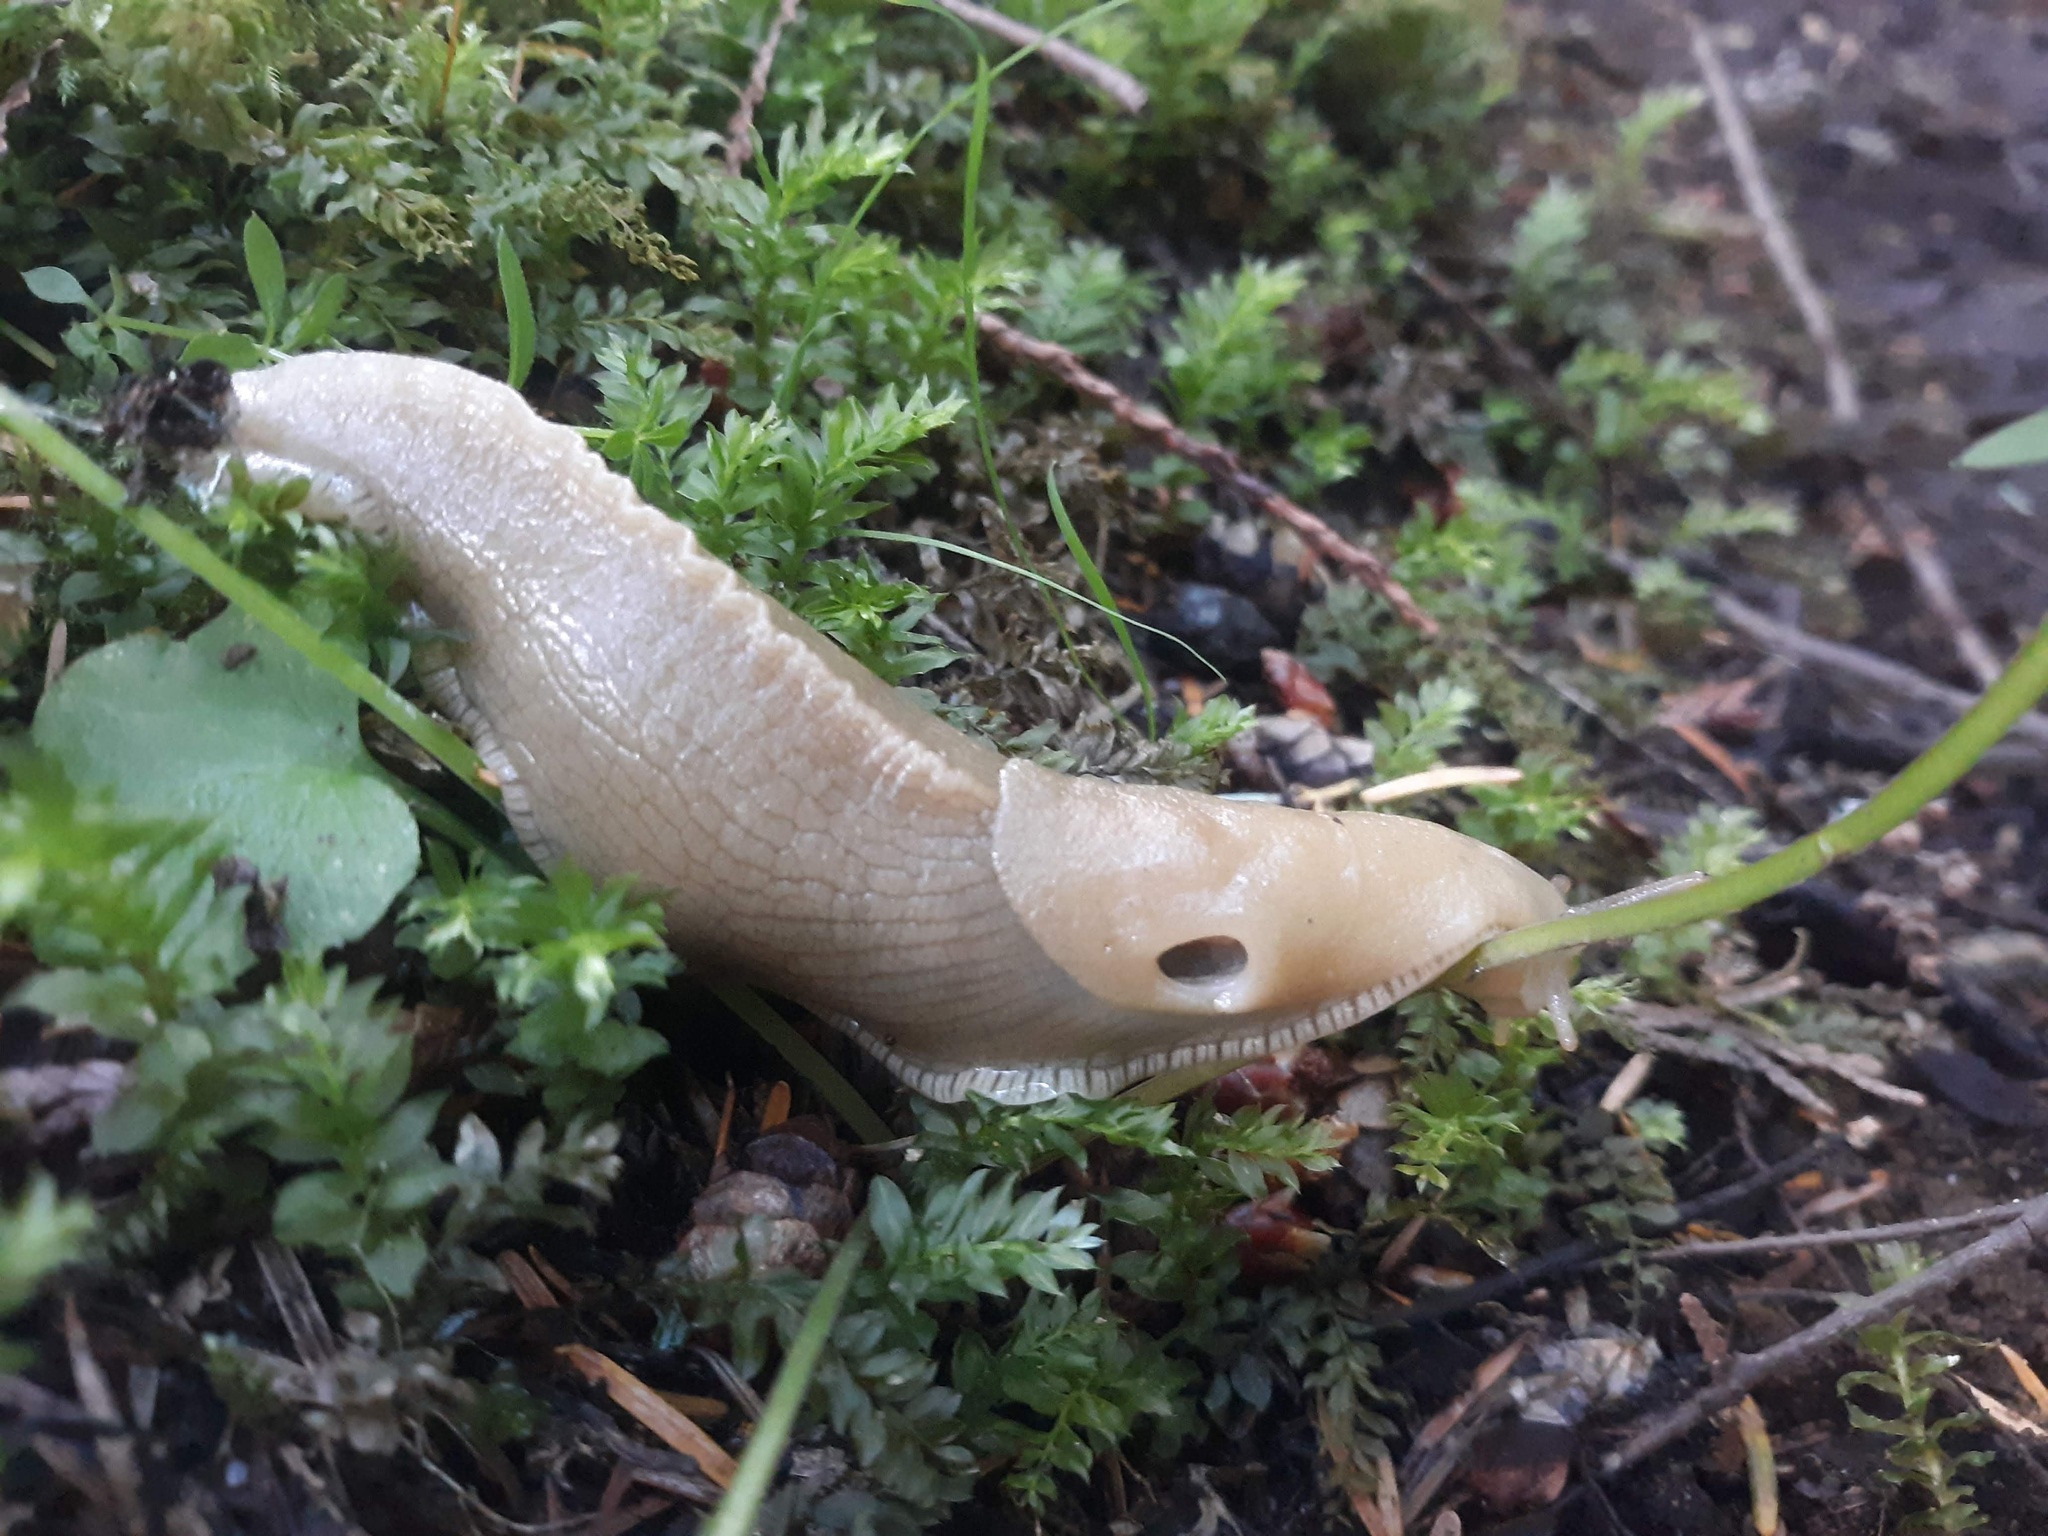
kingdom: Animalia
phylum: Mollusca
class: Gastropoda
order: Stylommatophora
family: Ariolimacidae
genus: Ariolimax
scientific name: Ariolimax columbianus
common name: Pacific banana slug
